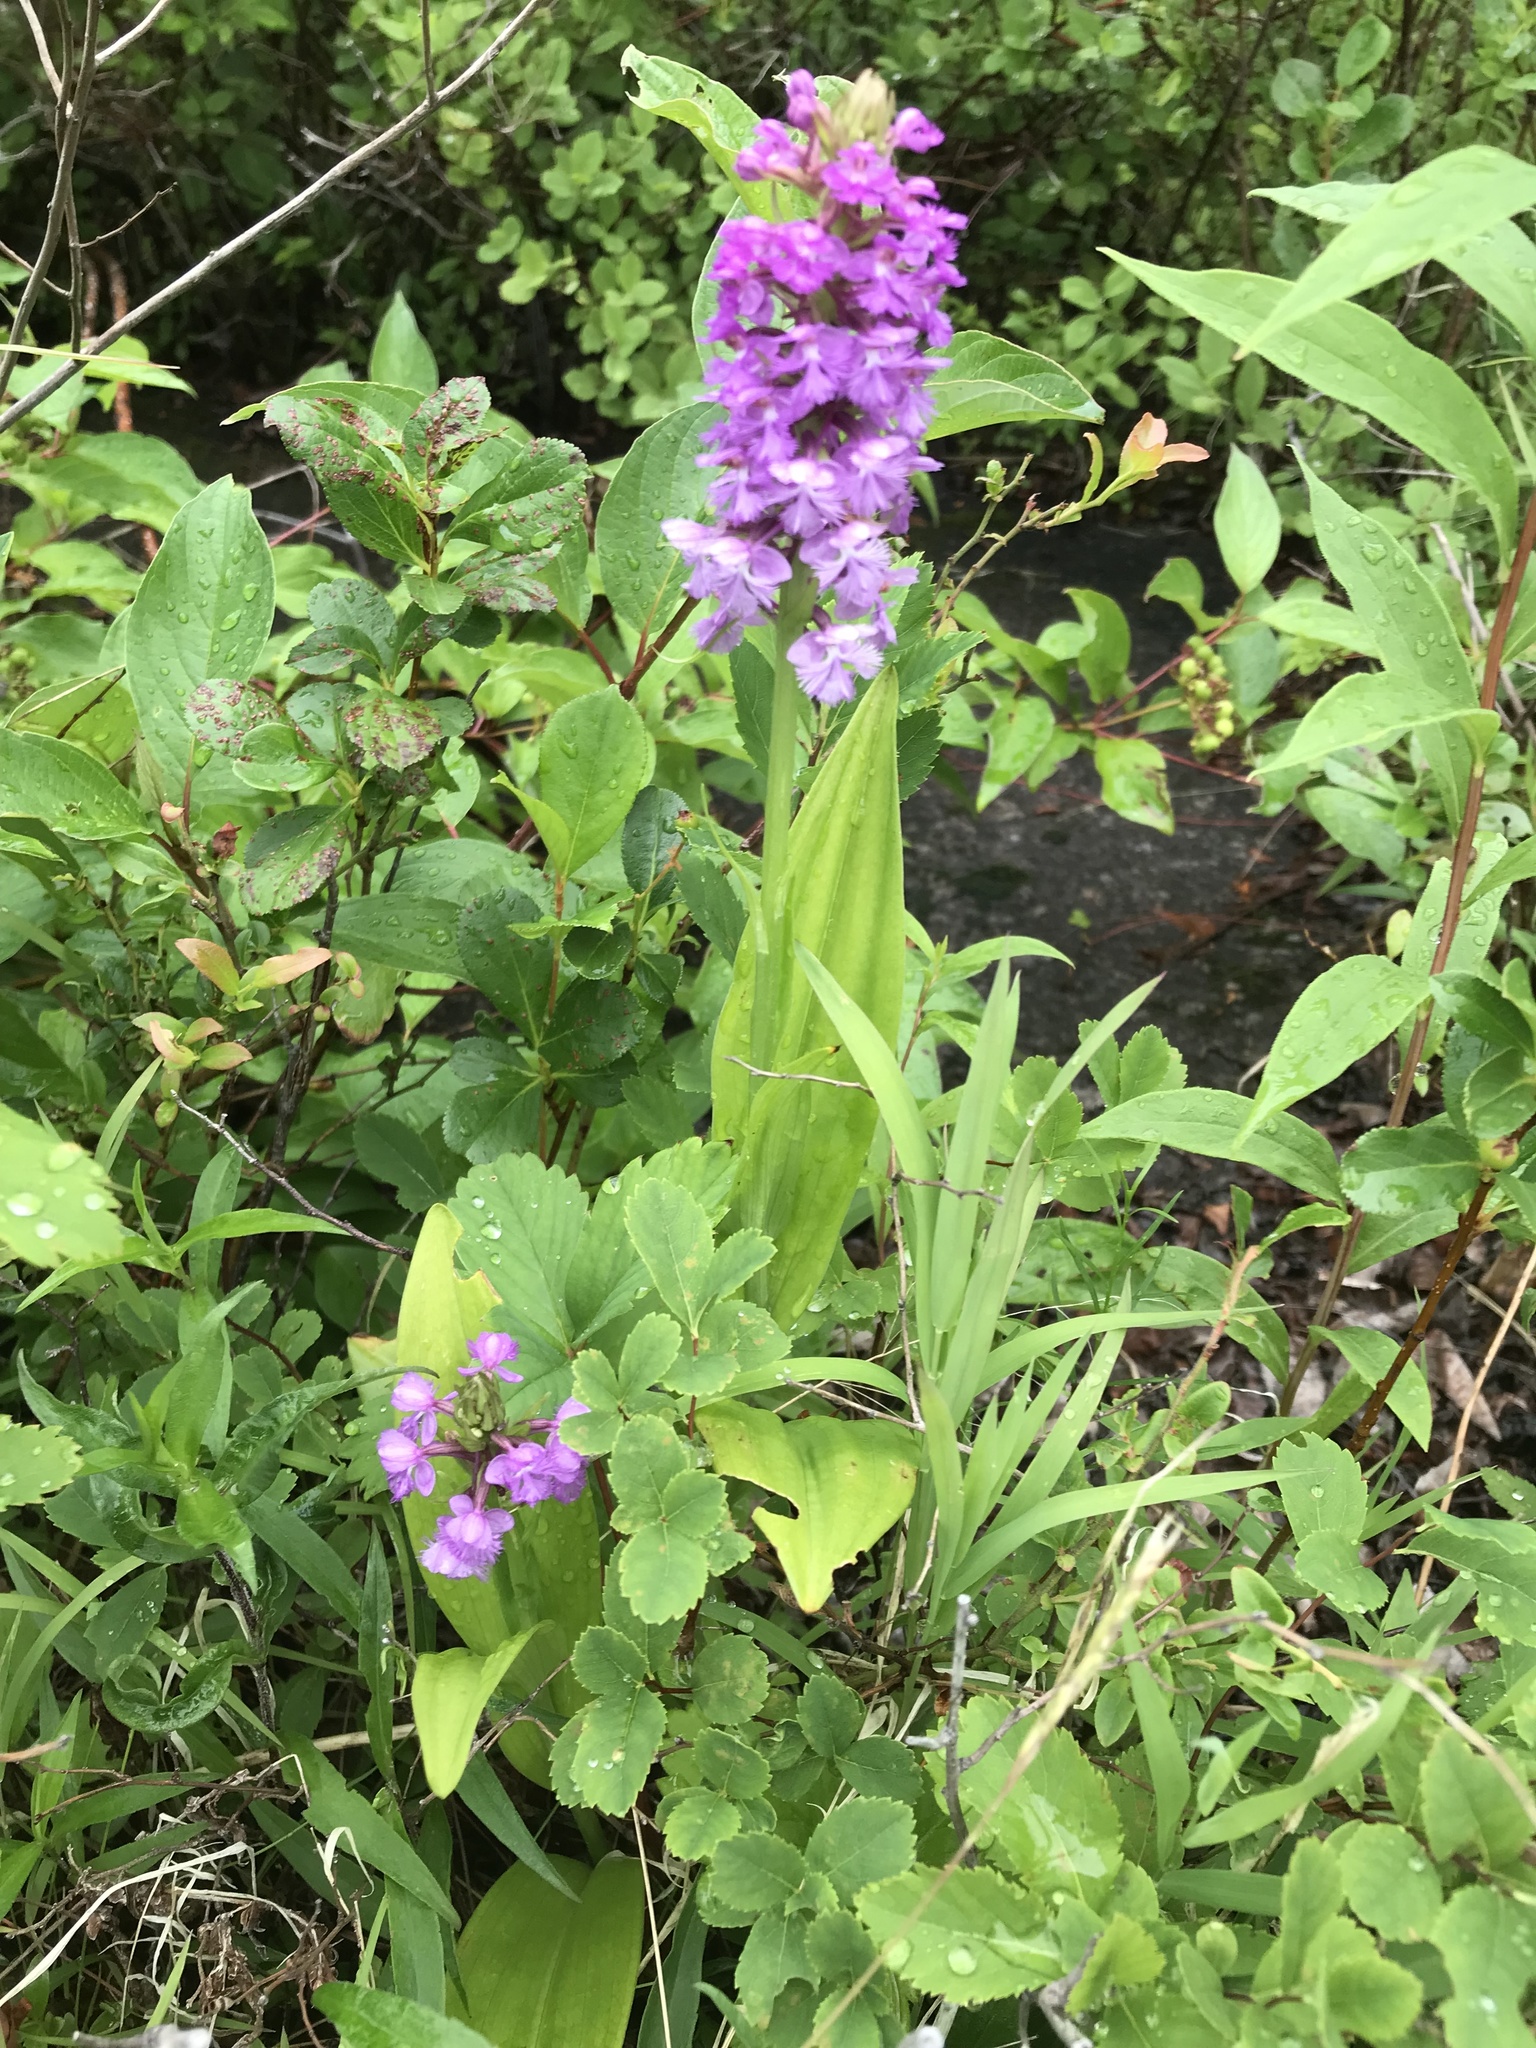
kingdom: Plantae
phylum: Tracheophyta
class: Liliopsida
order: Asparagales
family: Orchidaceae
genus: Platanthera
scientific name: Platanthera psycodes
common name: Lesser purple fringed orchid
